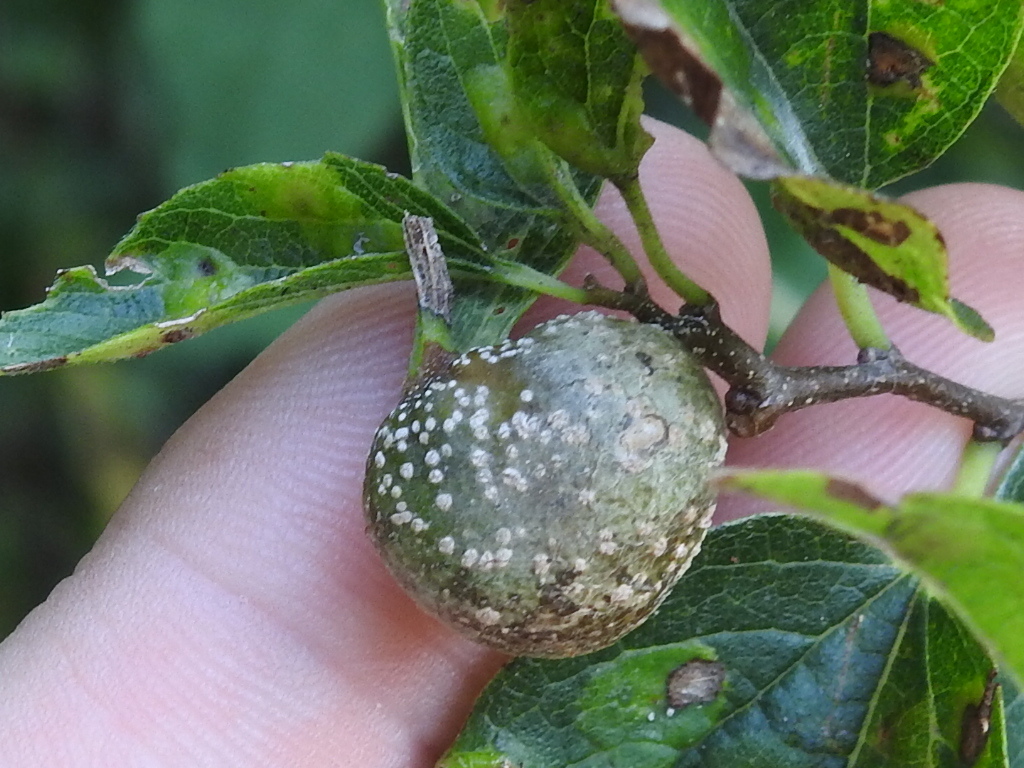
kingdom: Animalia
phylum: Arthropoda
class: Insecta
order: Hemiptera
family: Aphalaridae
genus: Pachypsylla
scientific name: Pachypsylla venusta
